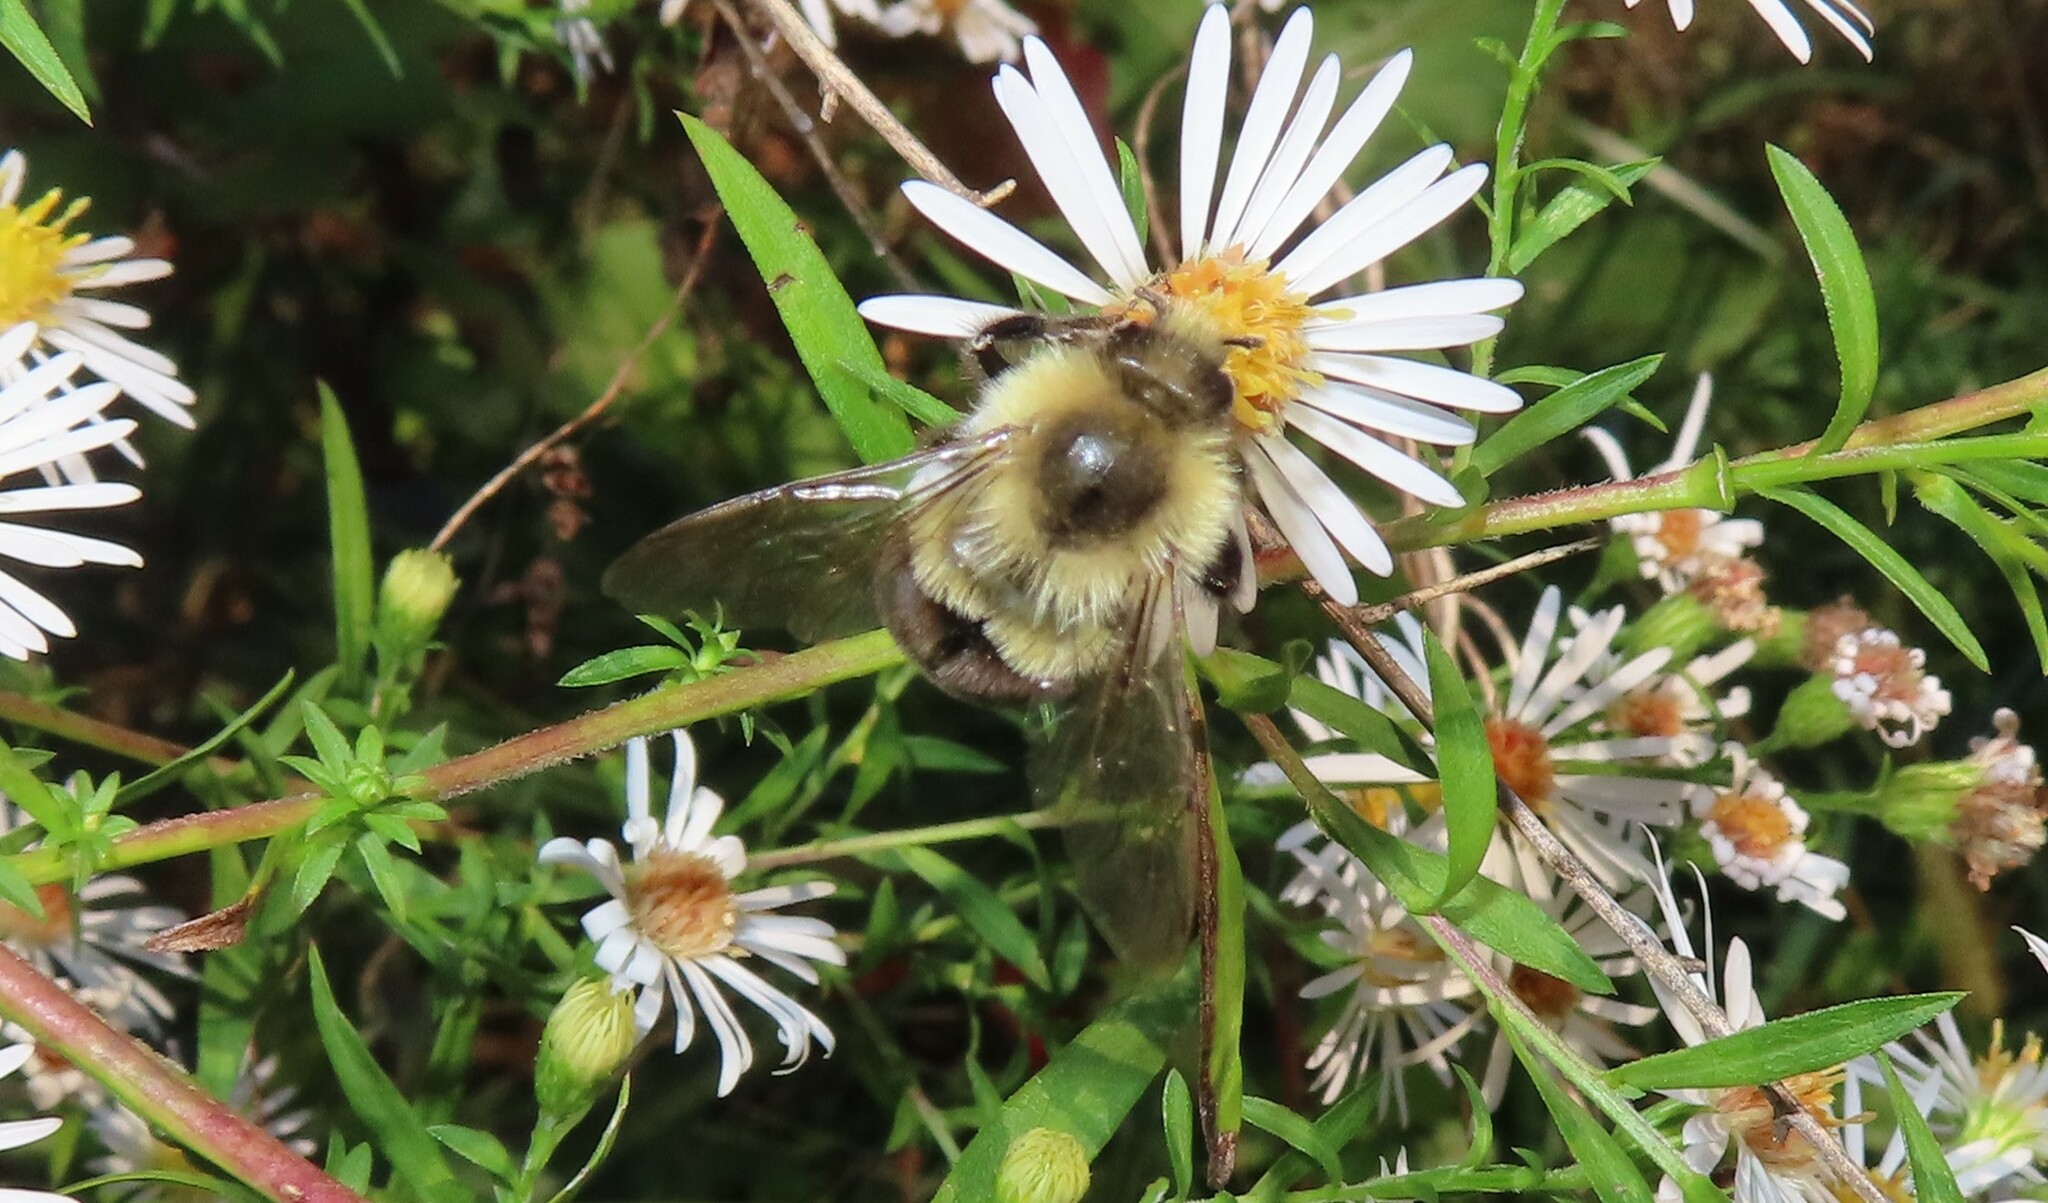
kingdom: Animalia
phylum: Arthropoda
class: Insecta
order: Hymenoptera
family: Apidae
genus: Bombus
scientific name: Bombus impatiens
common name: Common eastern bumble bee
